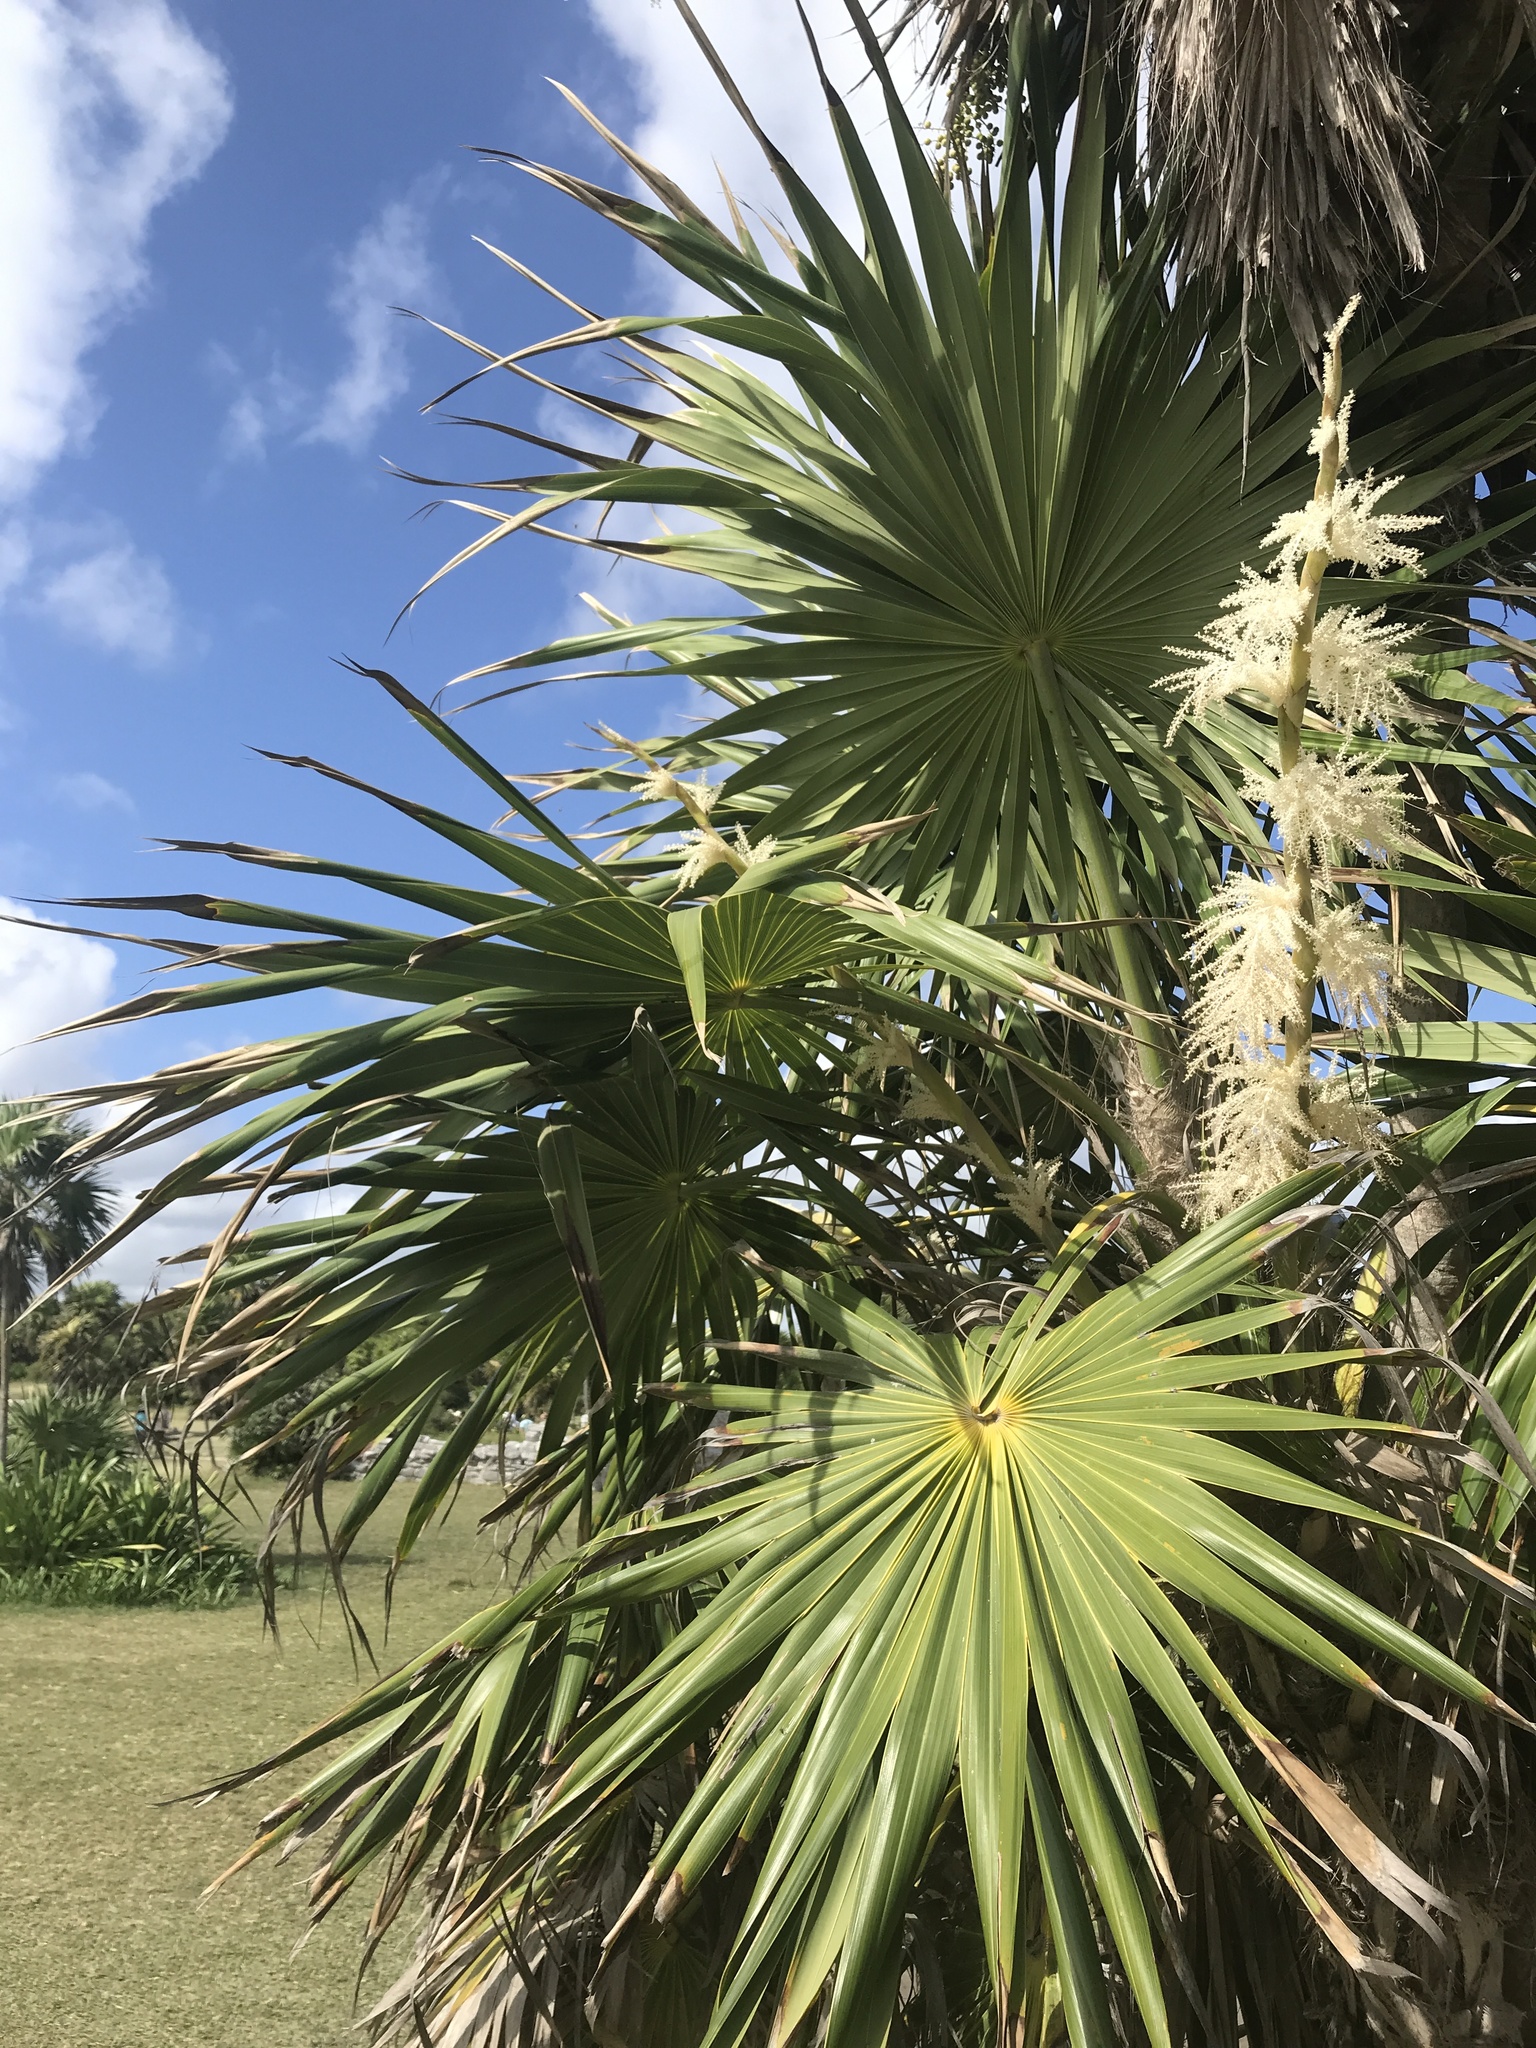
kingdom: Plantae
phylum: Tracheophyta
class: Liliopsida
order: Arecales
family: Arecaceae
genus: Thrinax
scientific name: Thrinax radiata
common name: Florida thatch
